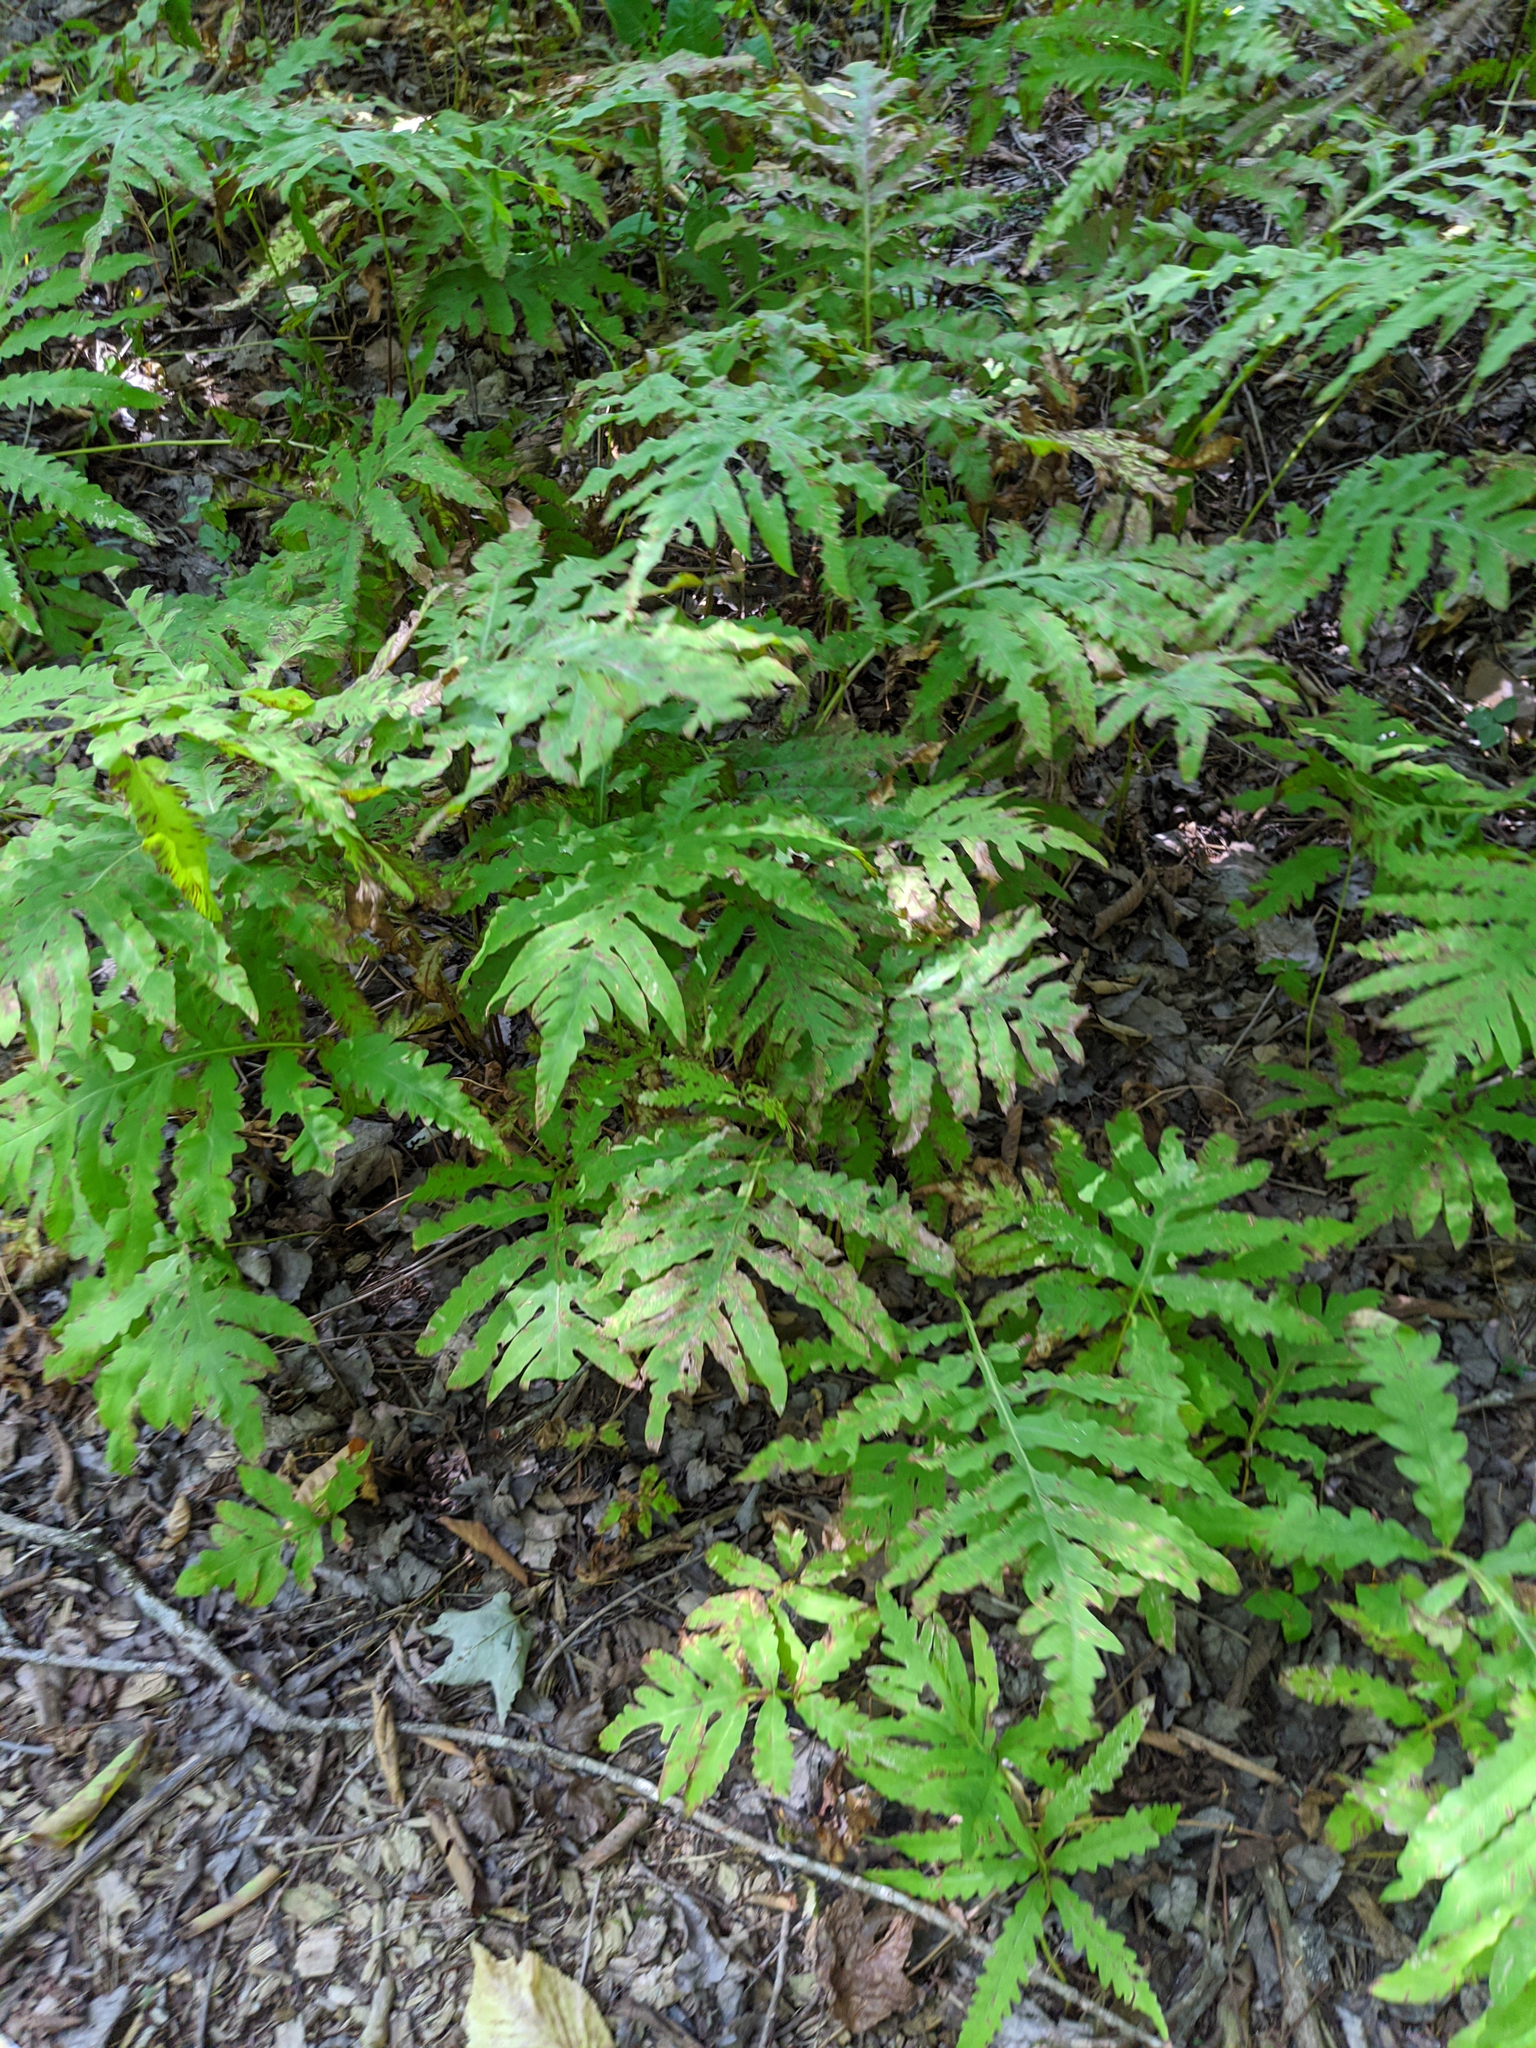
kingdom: Plantae
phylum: Tracheophyta
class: Polypodiopsida
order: Polypodiales
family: Onocleaceae
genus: Onoclea
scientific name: Onoclea sensibilis
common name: Sensitive fern
